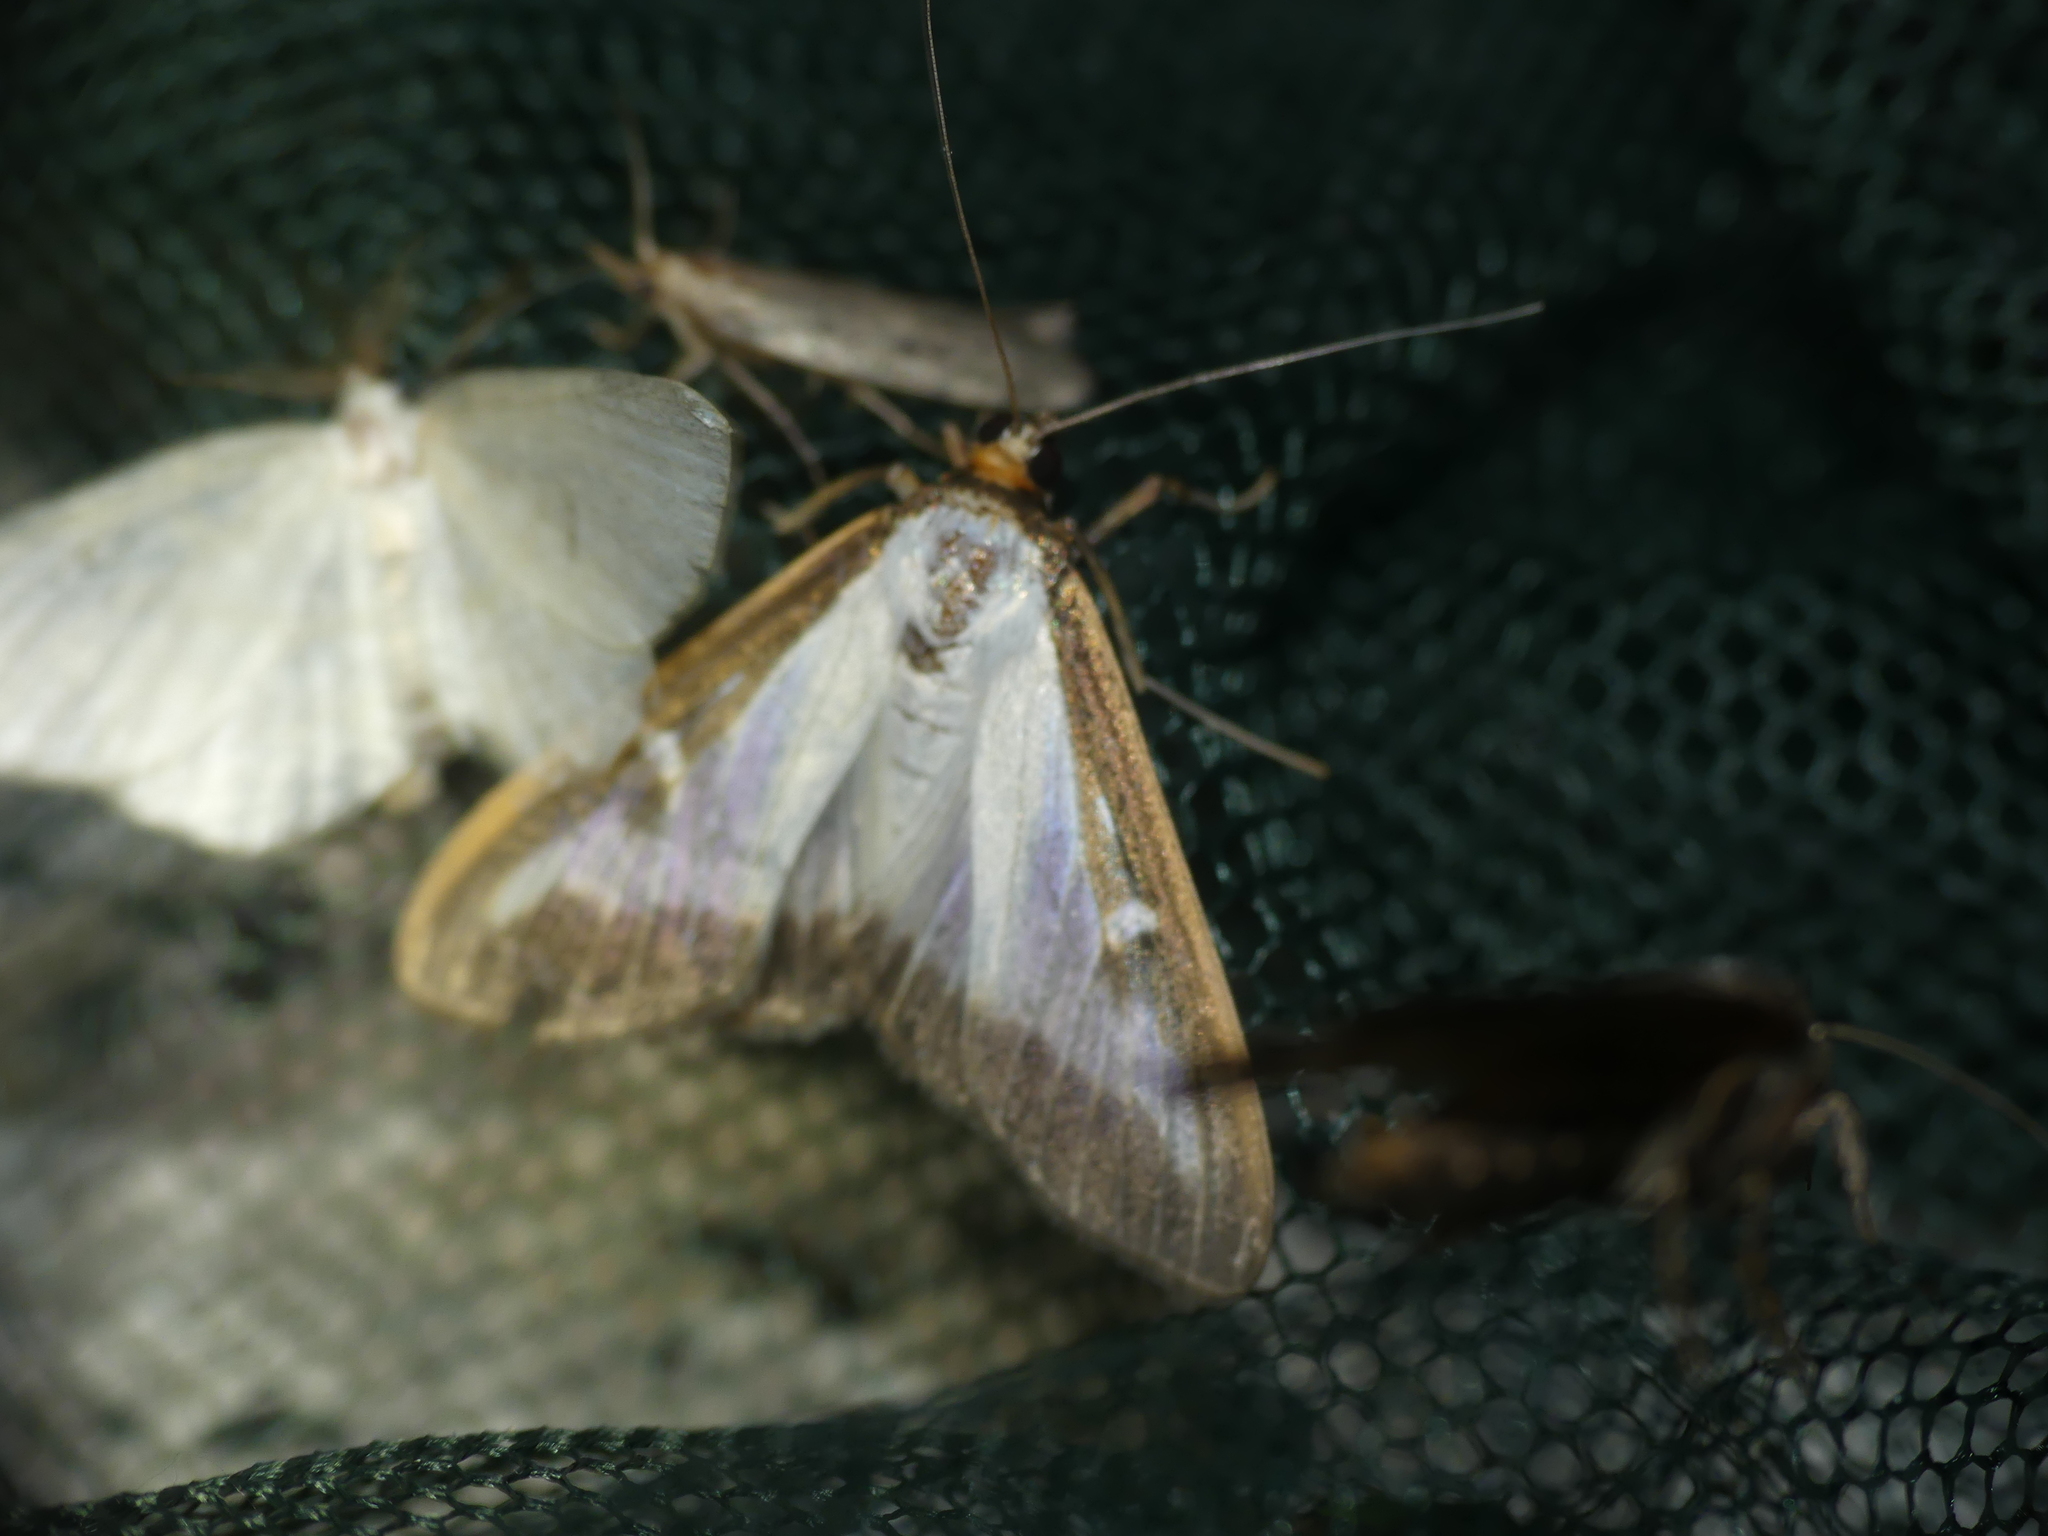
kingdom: Animalia
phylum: Arthropoda
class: Insecta
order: Lepidoptera
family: Crambidae
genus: Cydalima
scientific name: Cydalima perspectalis
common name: Box tree moth
